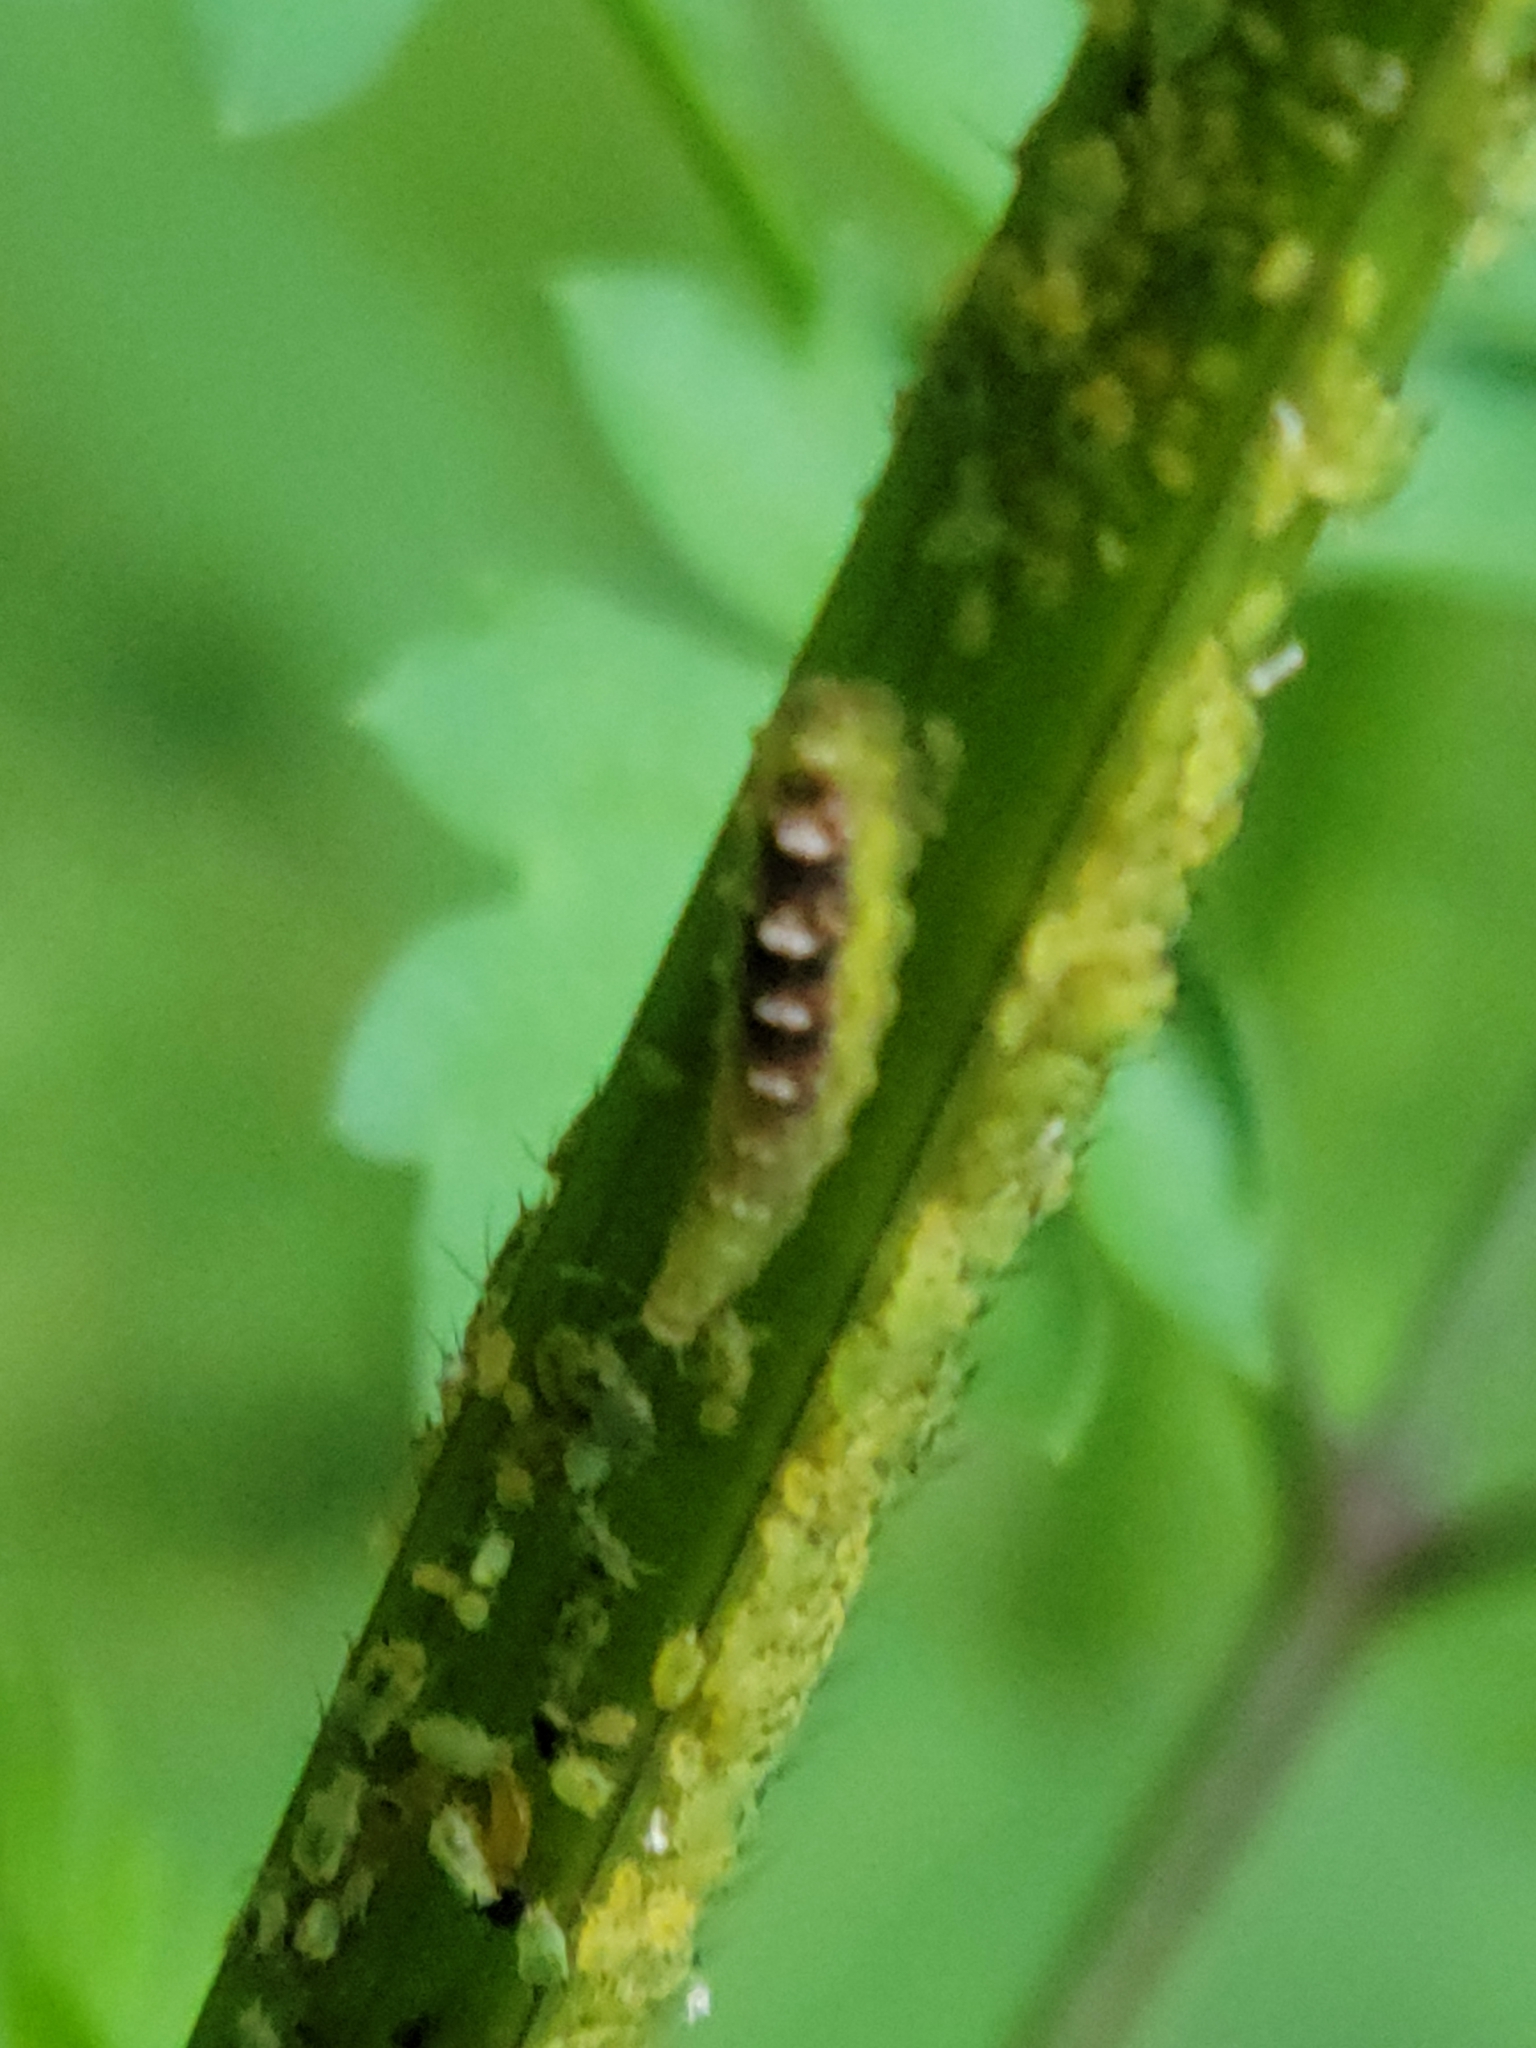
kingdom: Animalia
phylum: Arthropoda
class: Insecta
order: Diptera
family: Syrphidae
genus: Eupeodes
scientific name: Eupeodes pomus
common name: Short-tailed aphideater
